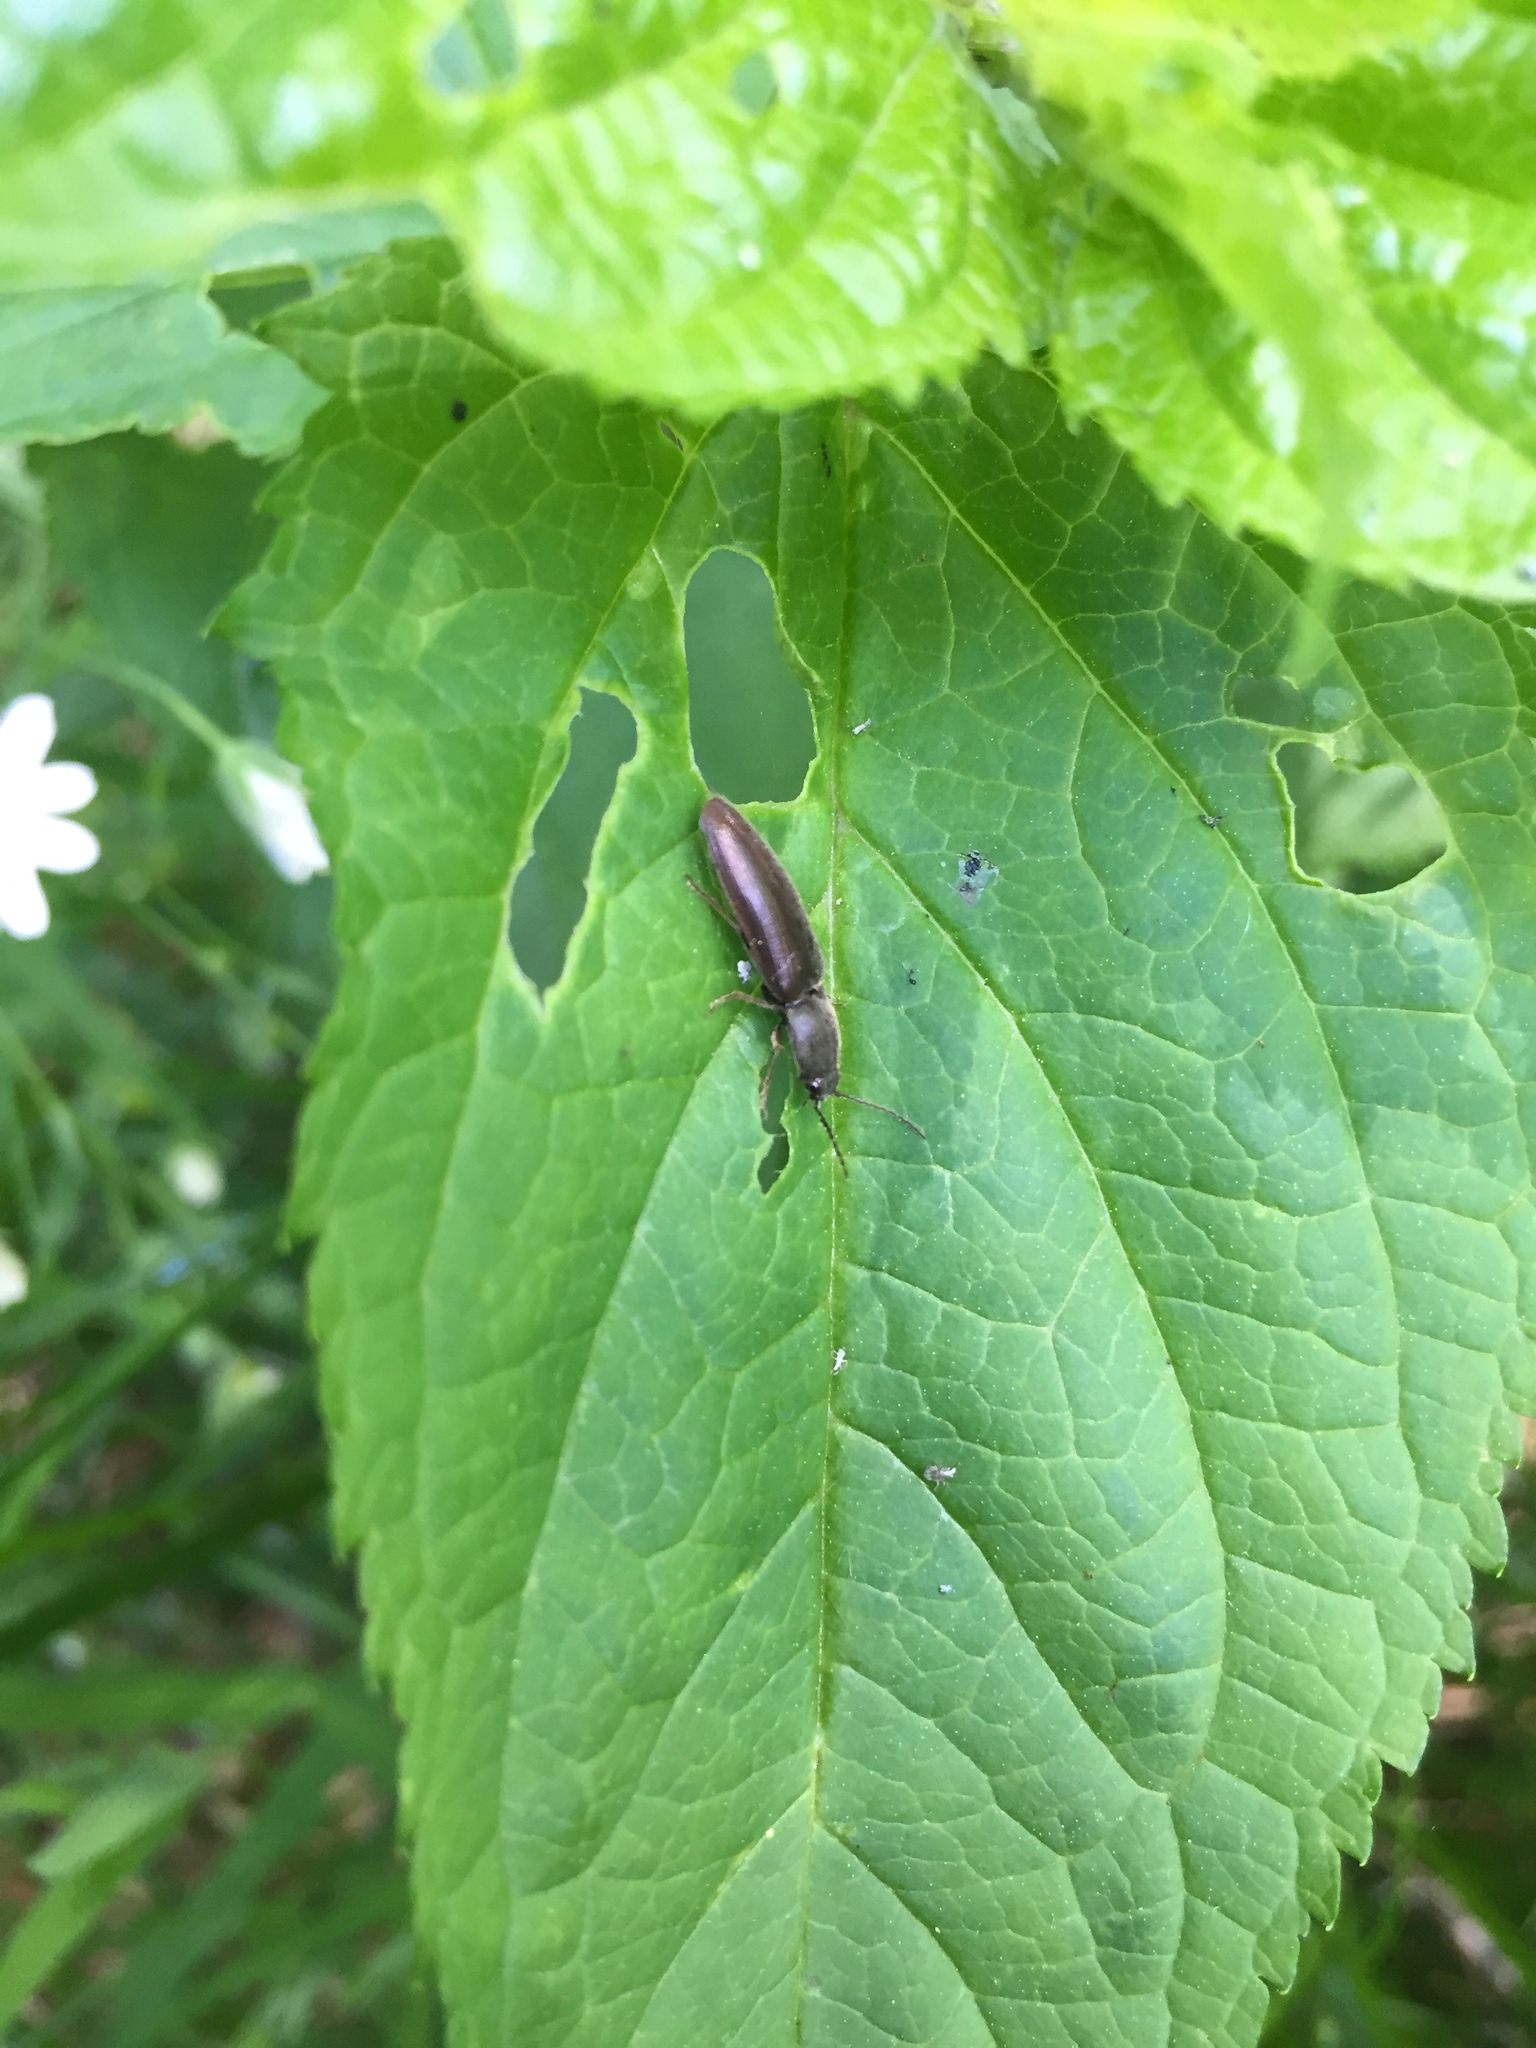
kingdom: Animalia
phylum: Arthropoda
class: Insecta
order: Coleoptera
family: Elateridae
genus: Athous
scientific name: Athous haemorrhoidalis
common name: Red-brown click beetle
